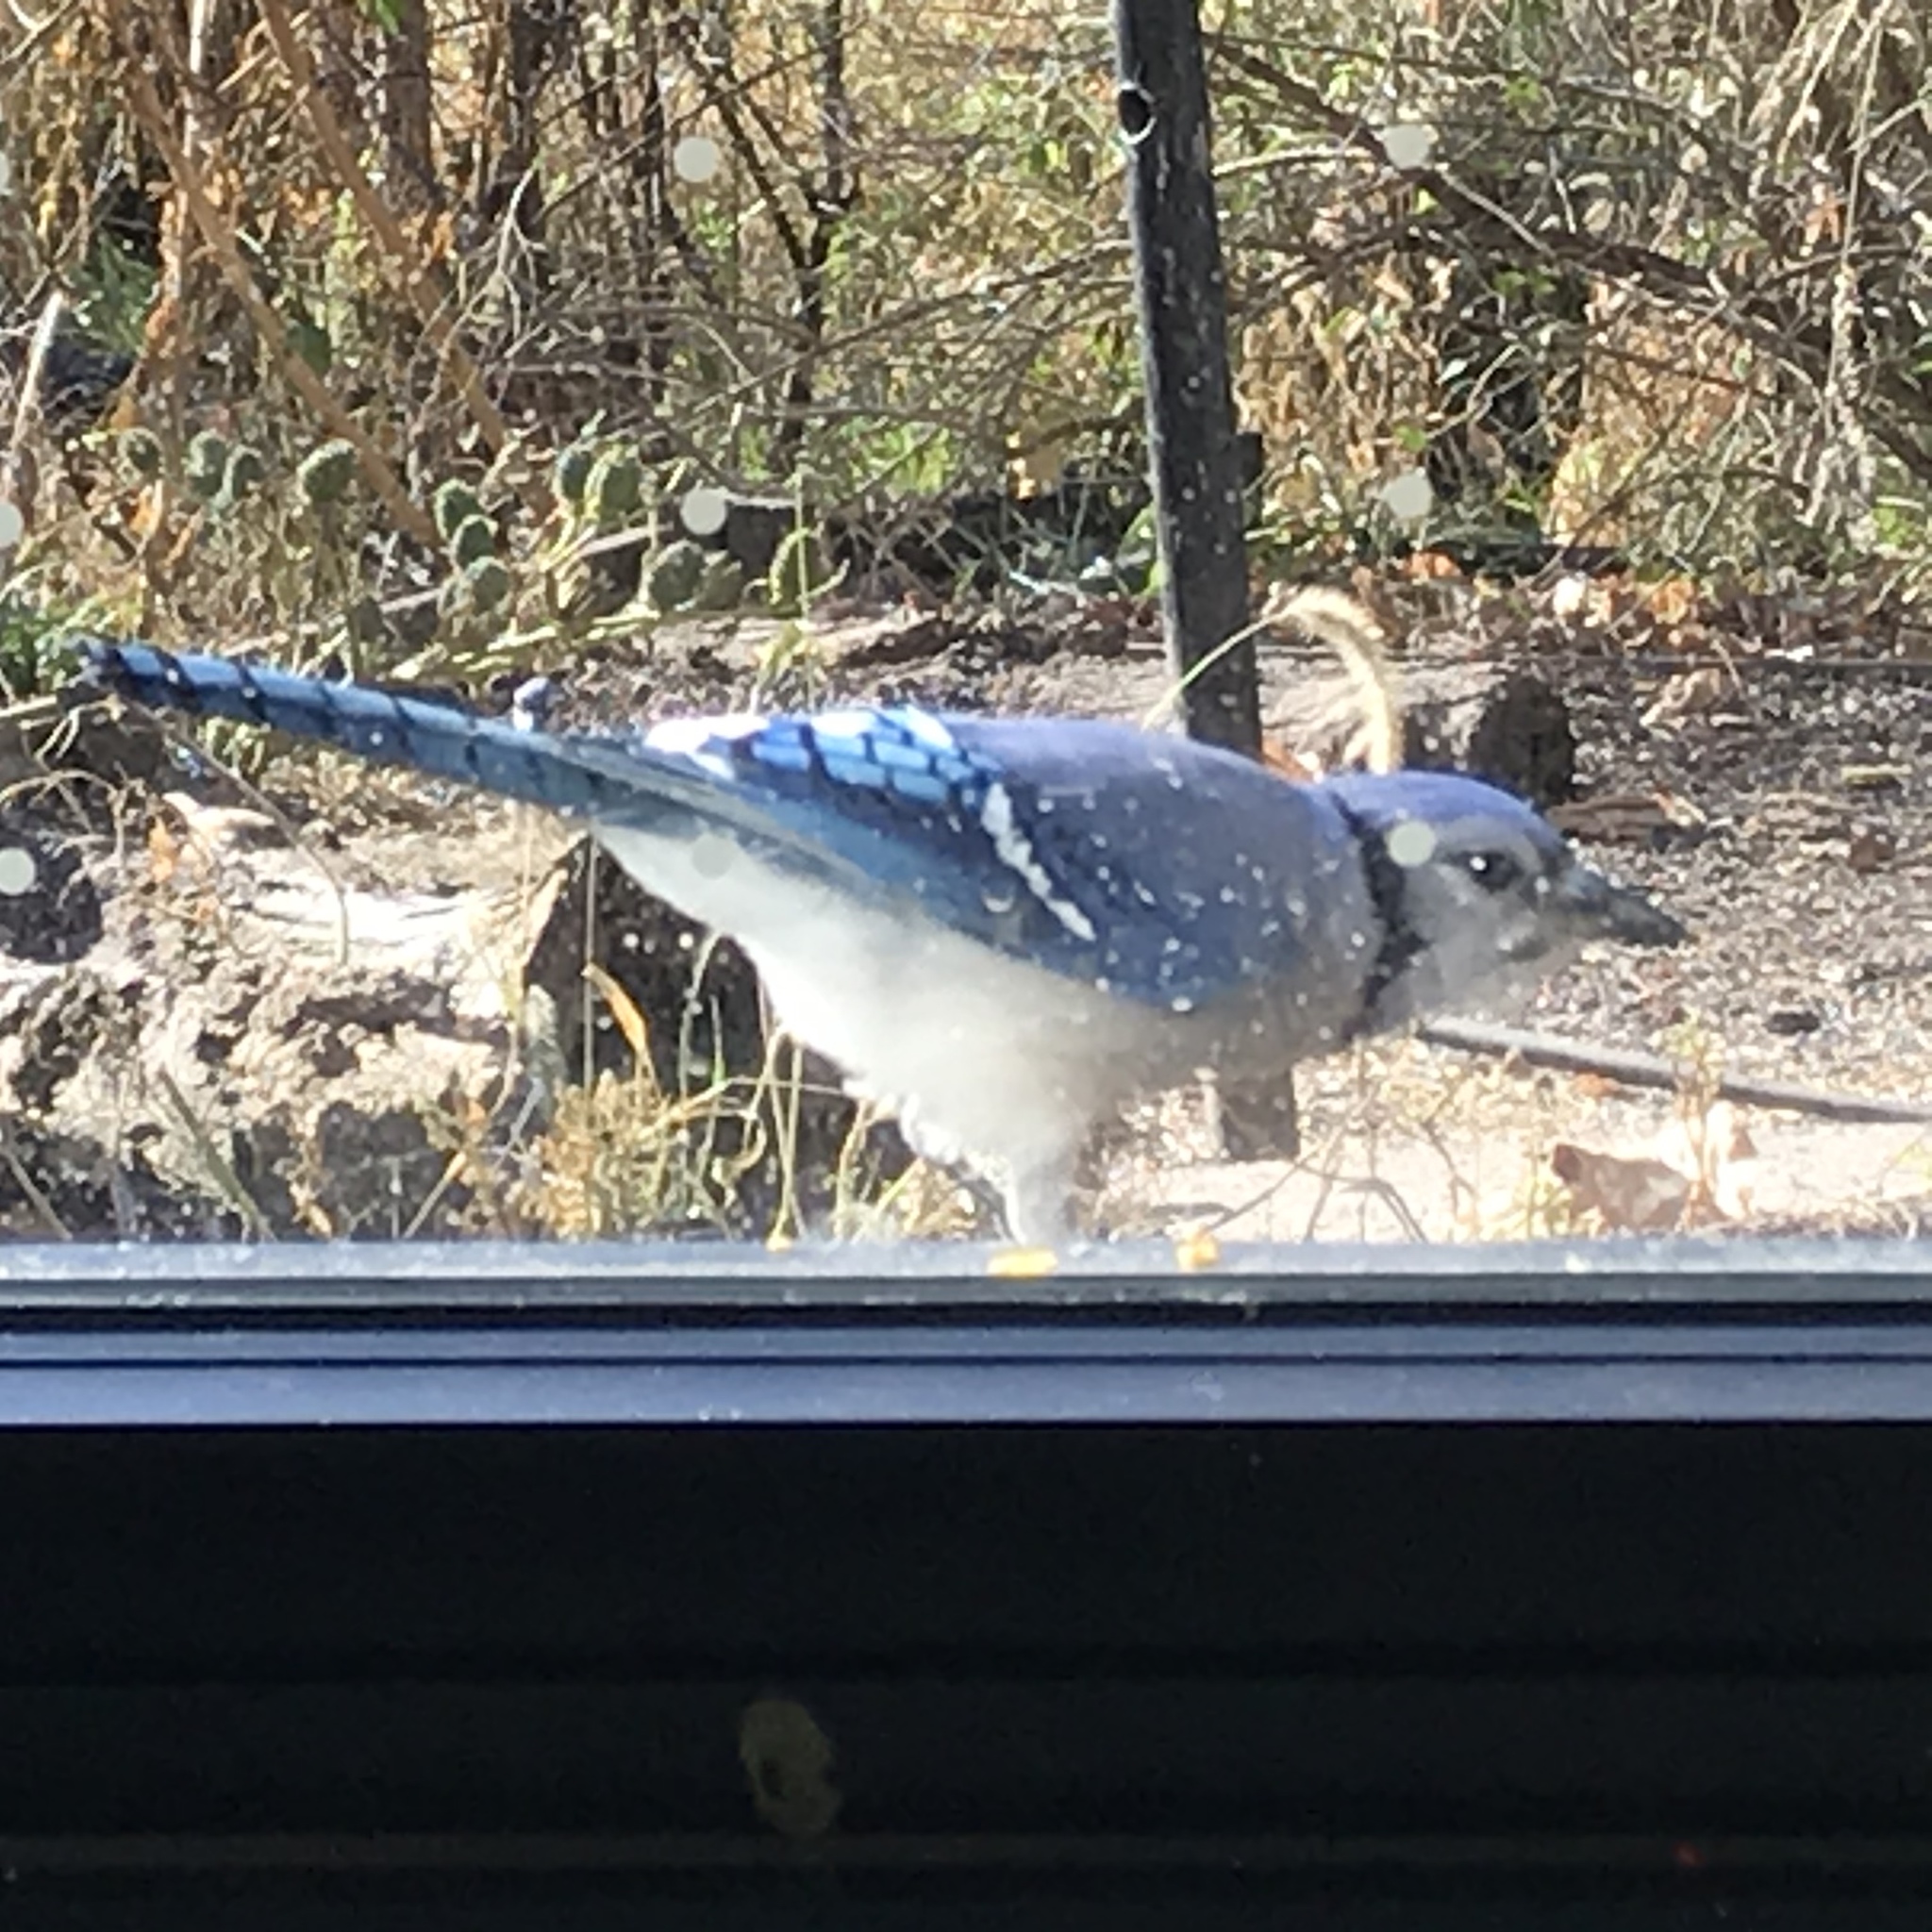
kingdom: Animalia
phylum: Chordata
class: Aves
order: Passeriformes
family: Corvidae
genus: Cyanocitta
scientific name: Cyanocitta cristata
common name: Blue jay
